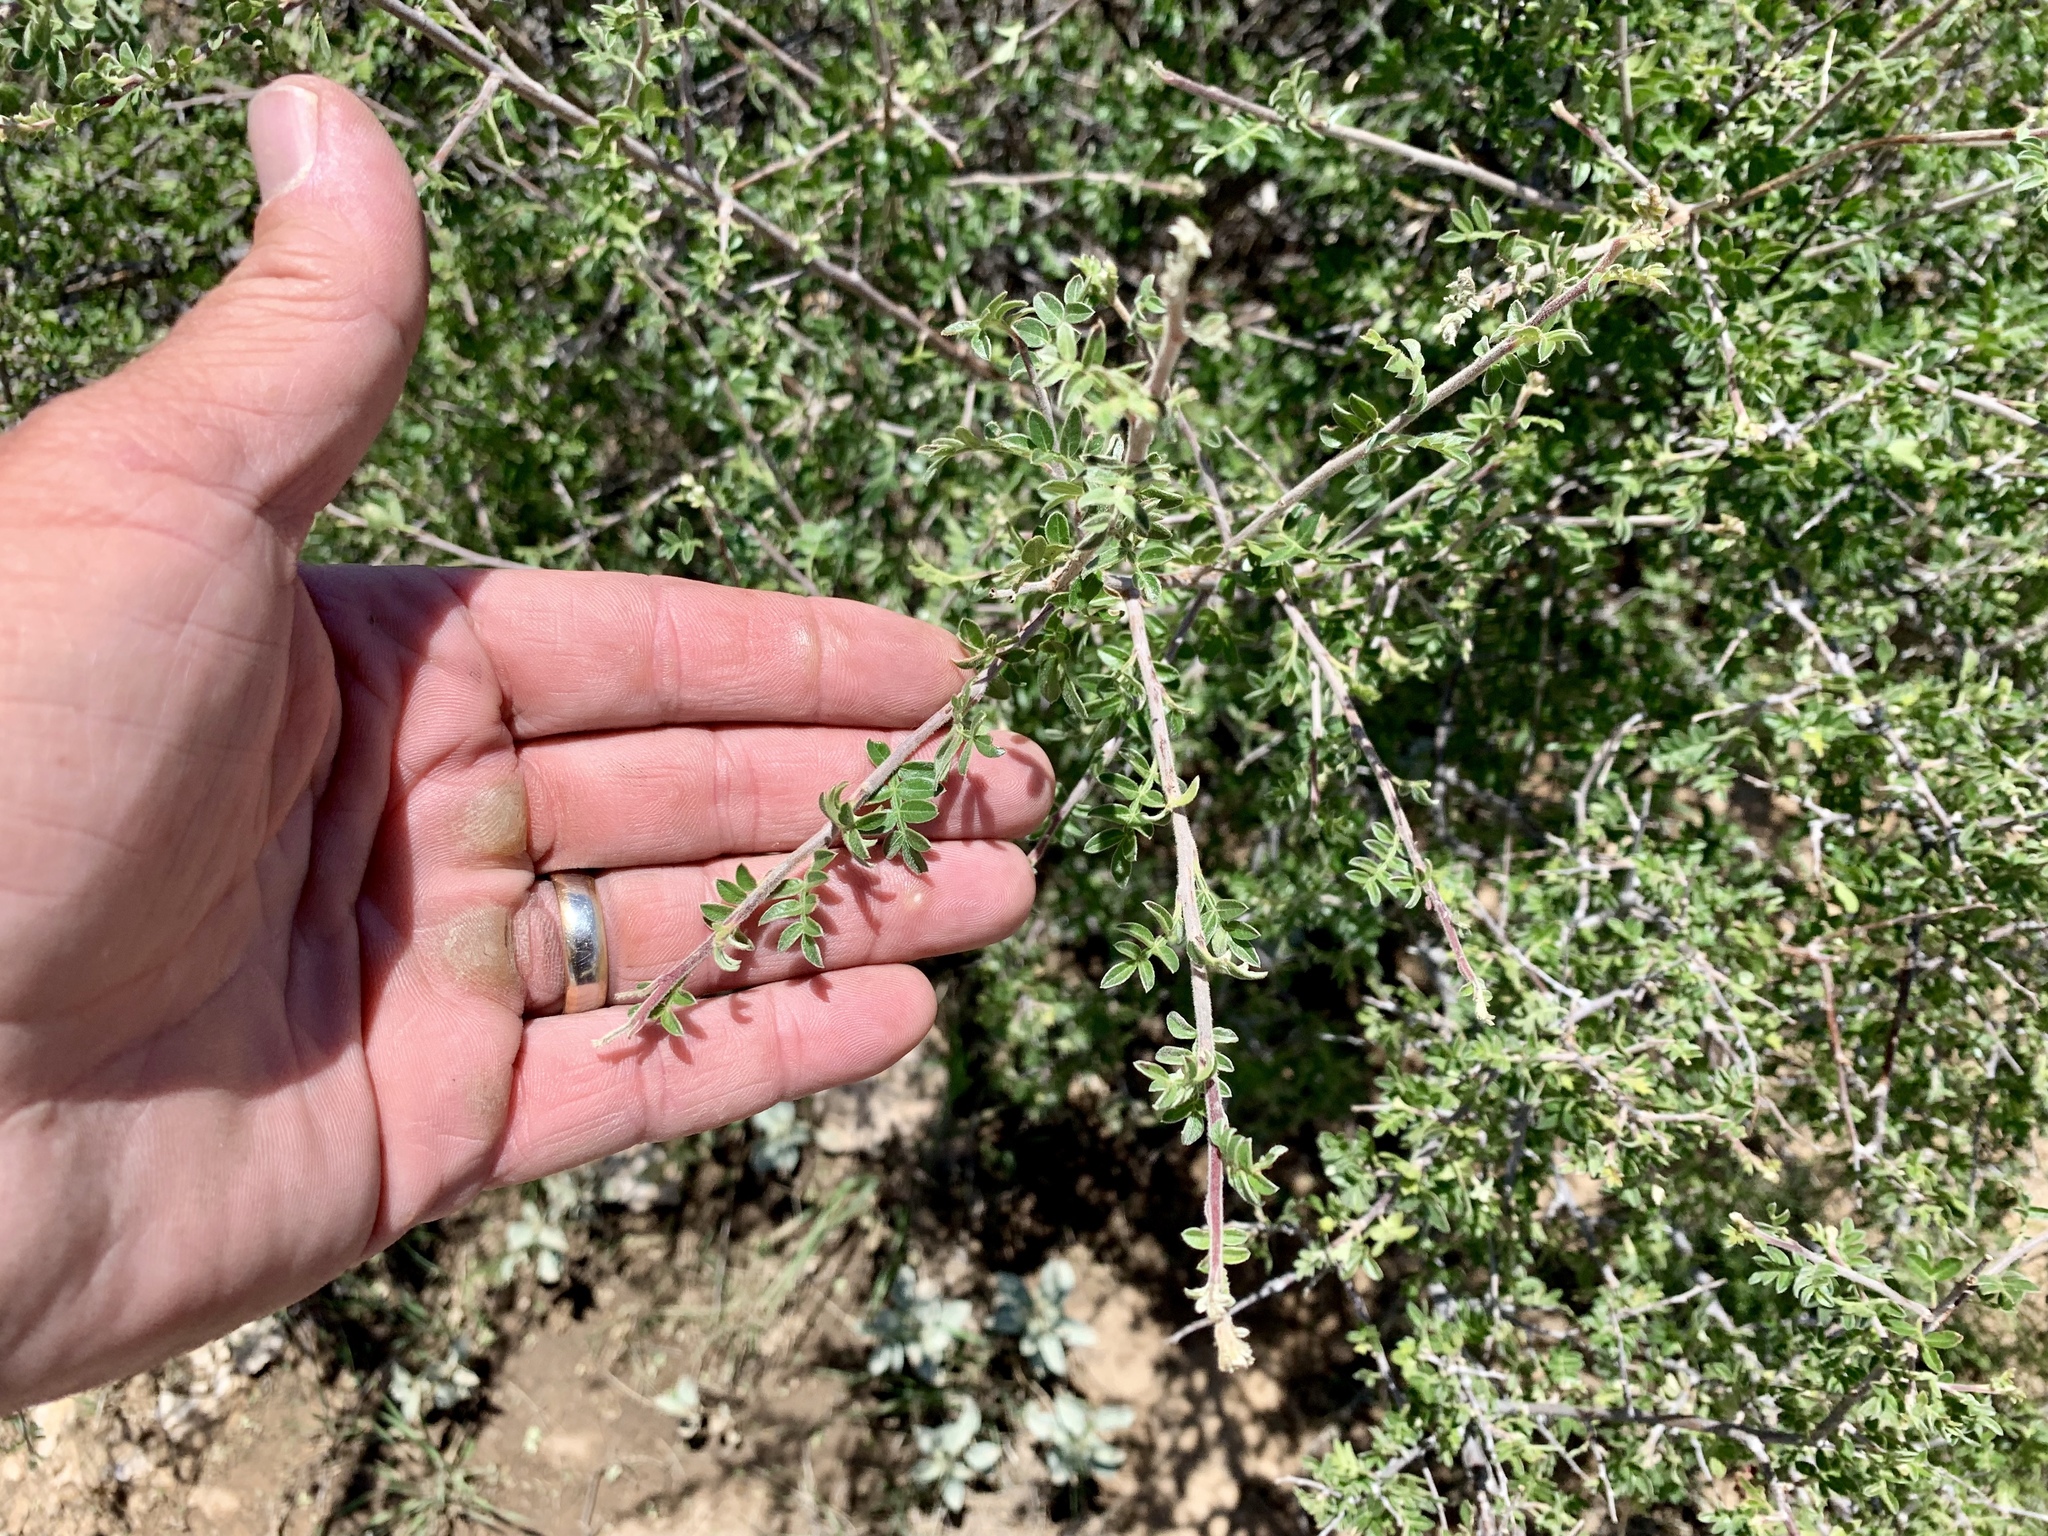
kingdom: Plantae
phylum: Tracheophyta
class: Magnoliopsida
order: Sapindales
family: Anacardiaceae
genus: Rhus
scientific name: Rhus microphylla
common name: Desert sumac
